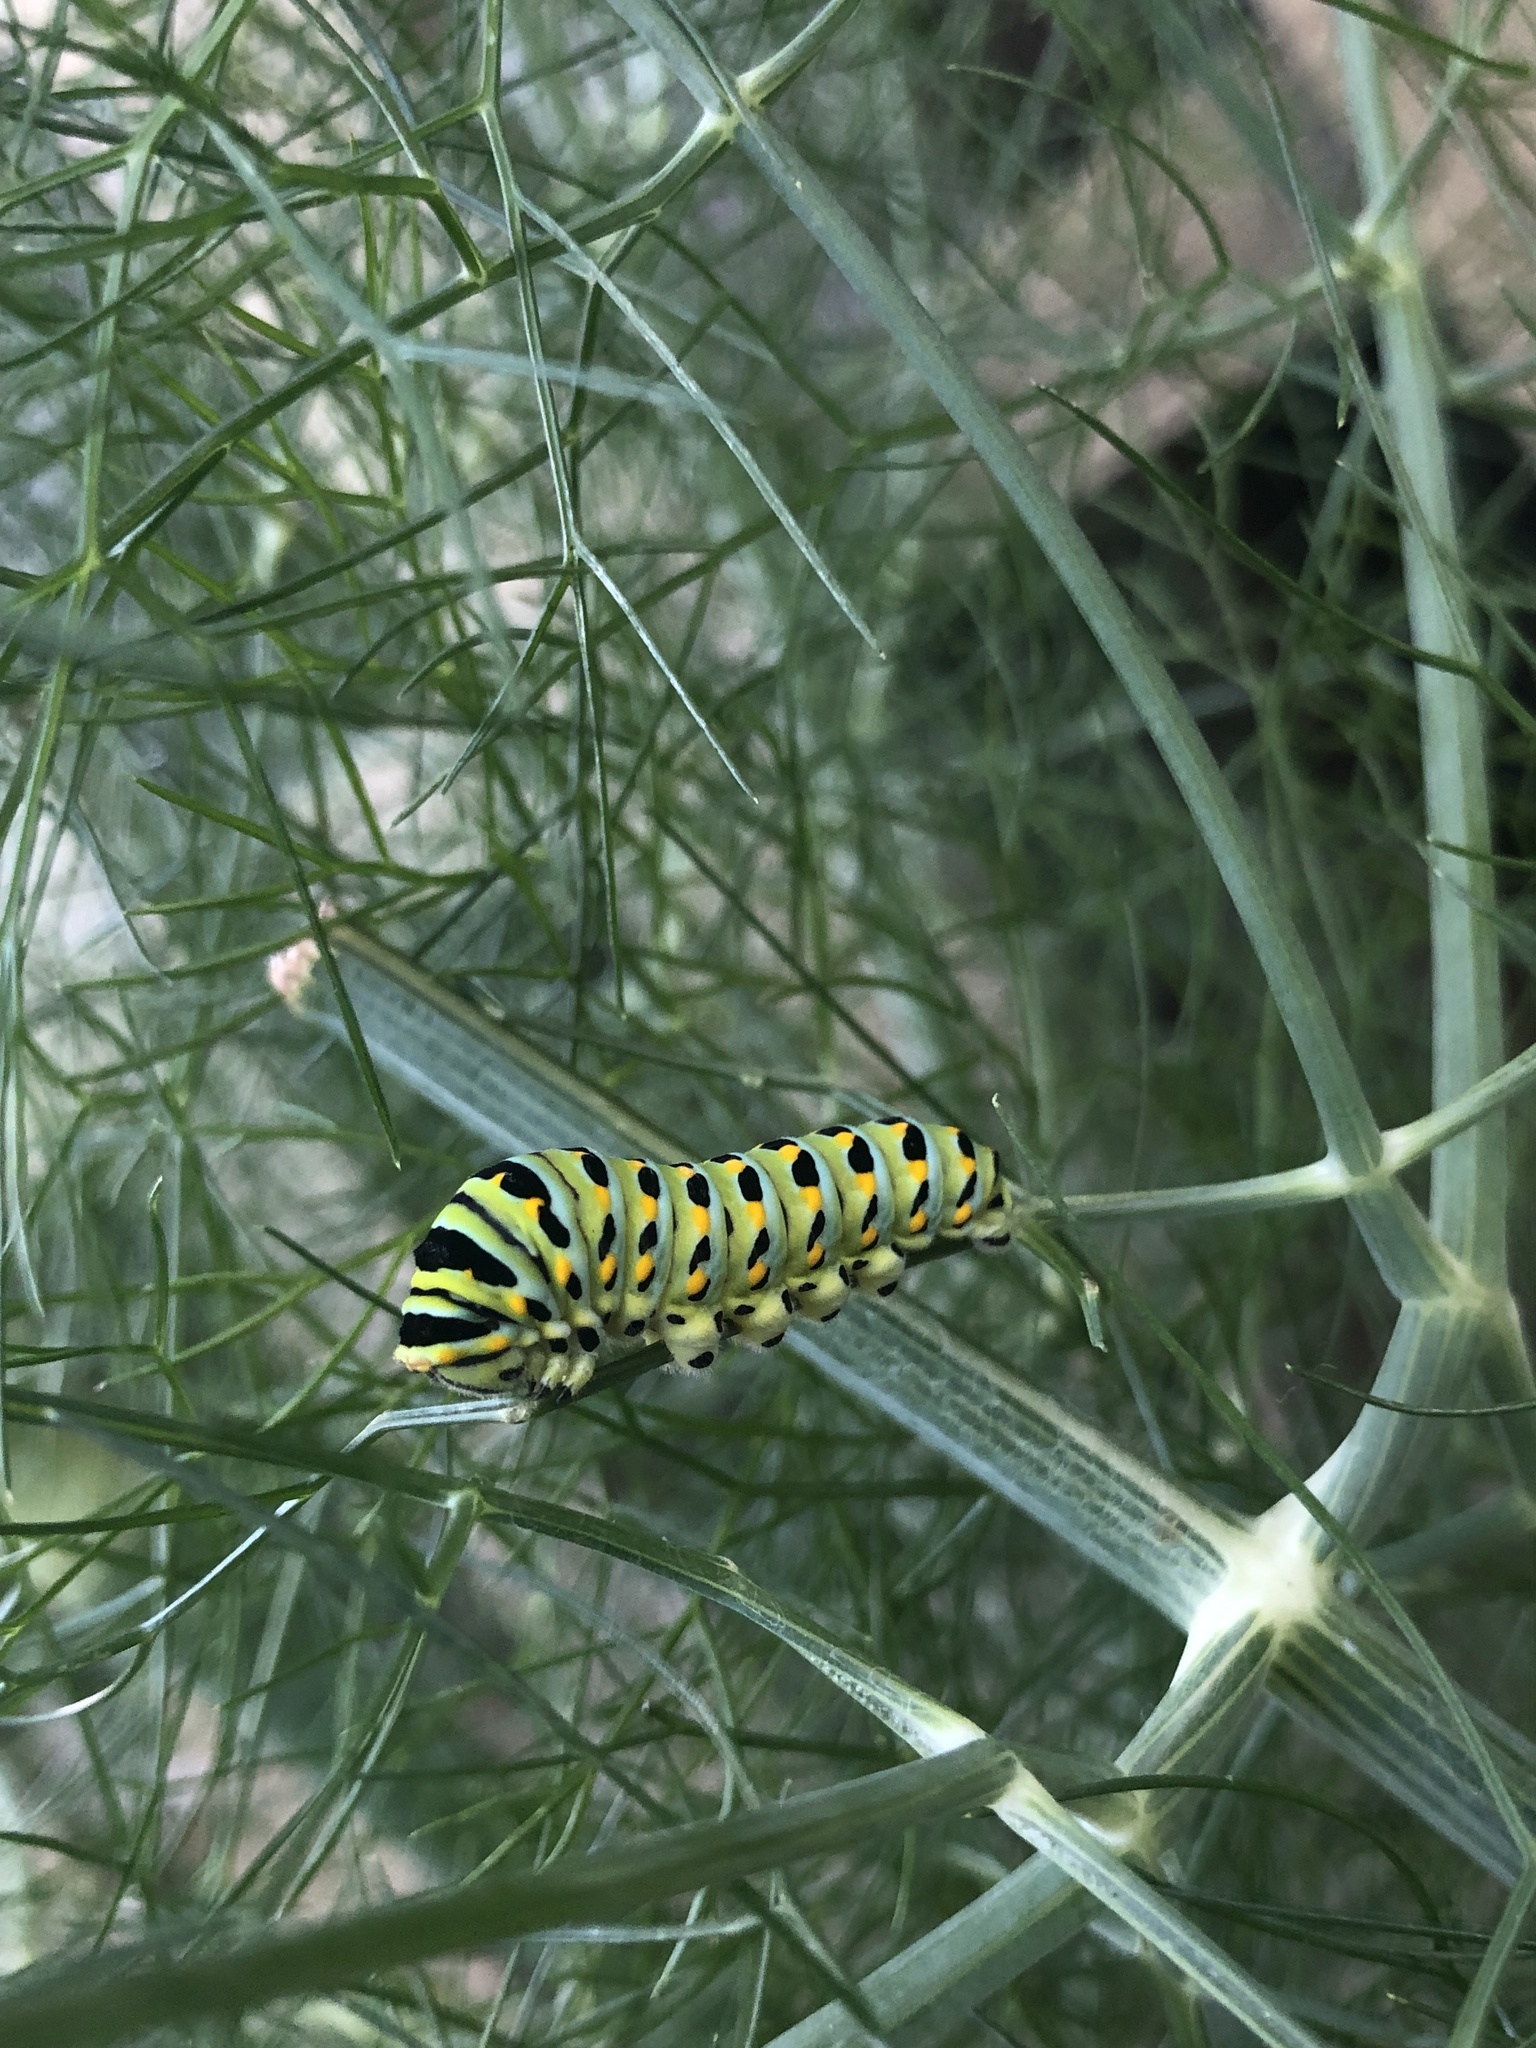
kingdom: Animalia
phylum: Arthropoda
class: Insecta
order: Lepidoptera
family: Papilionidae
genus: Papilio
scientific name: Papilio zelicaon
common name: Anise swallowtail
